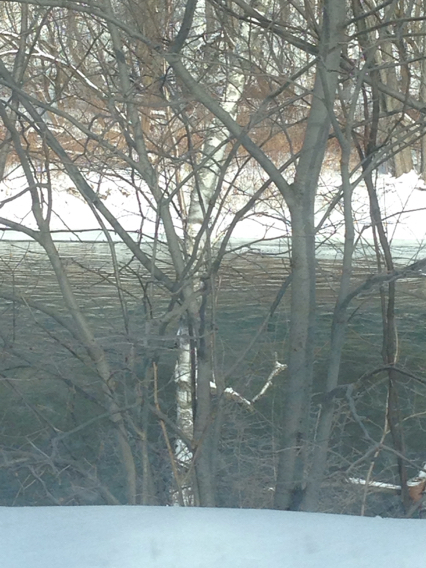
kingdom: Plantae
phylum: Tracheophyta
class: Magnoliopsida
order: Fagales
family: Betulaceae
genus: Betula
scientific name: Betula papyrifera
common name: Paper birch
